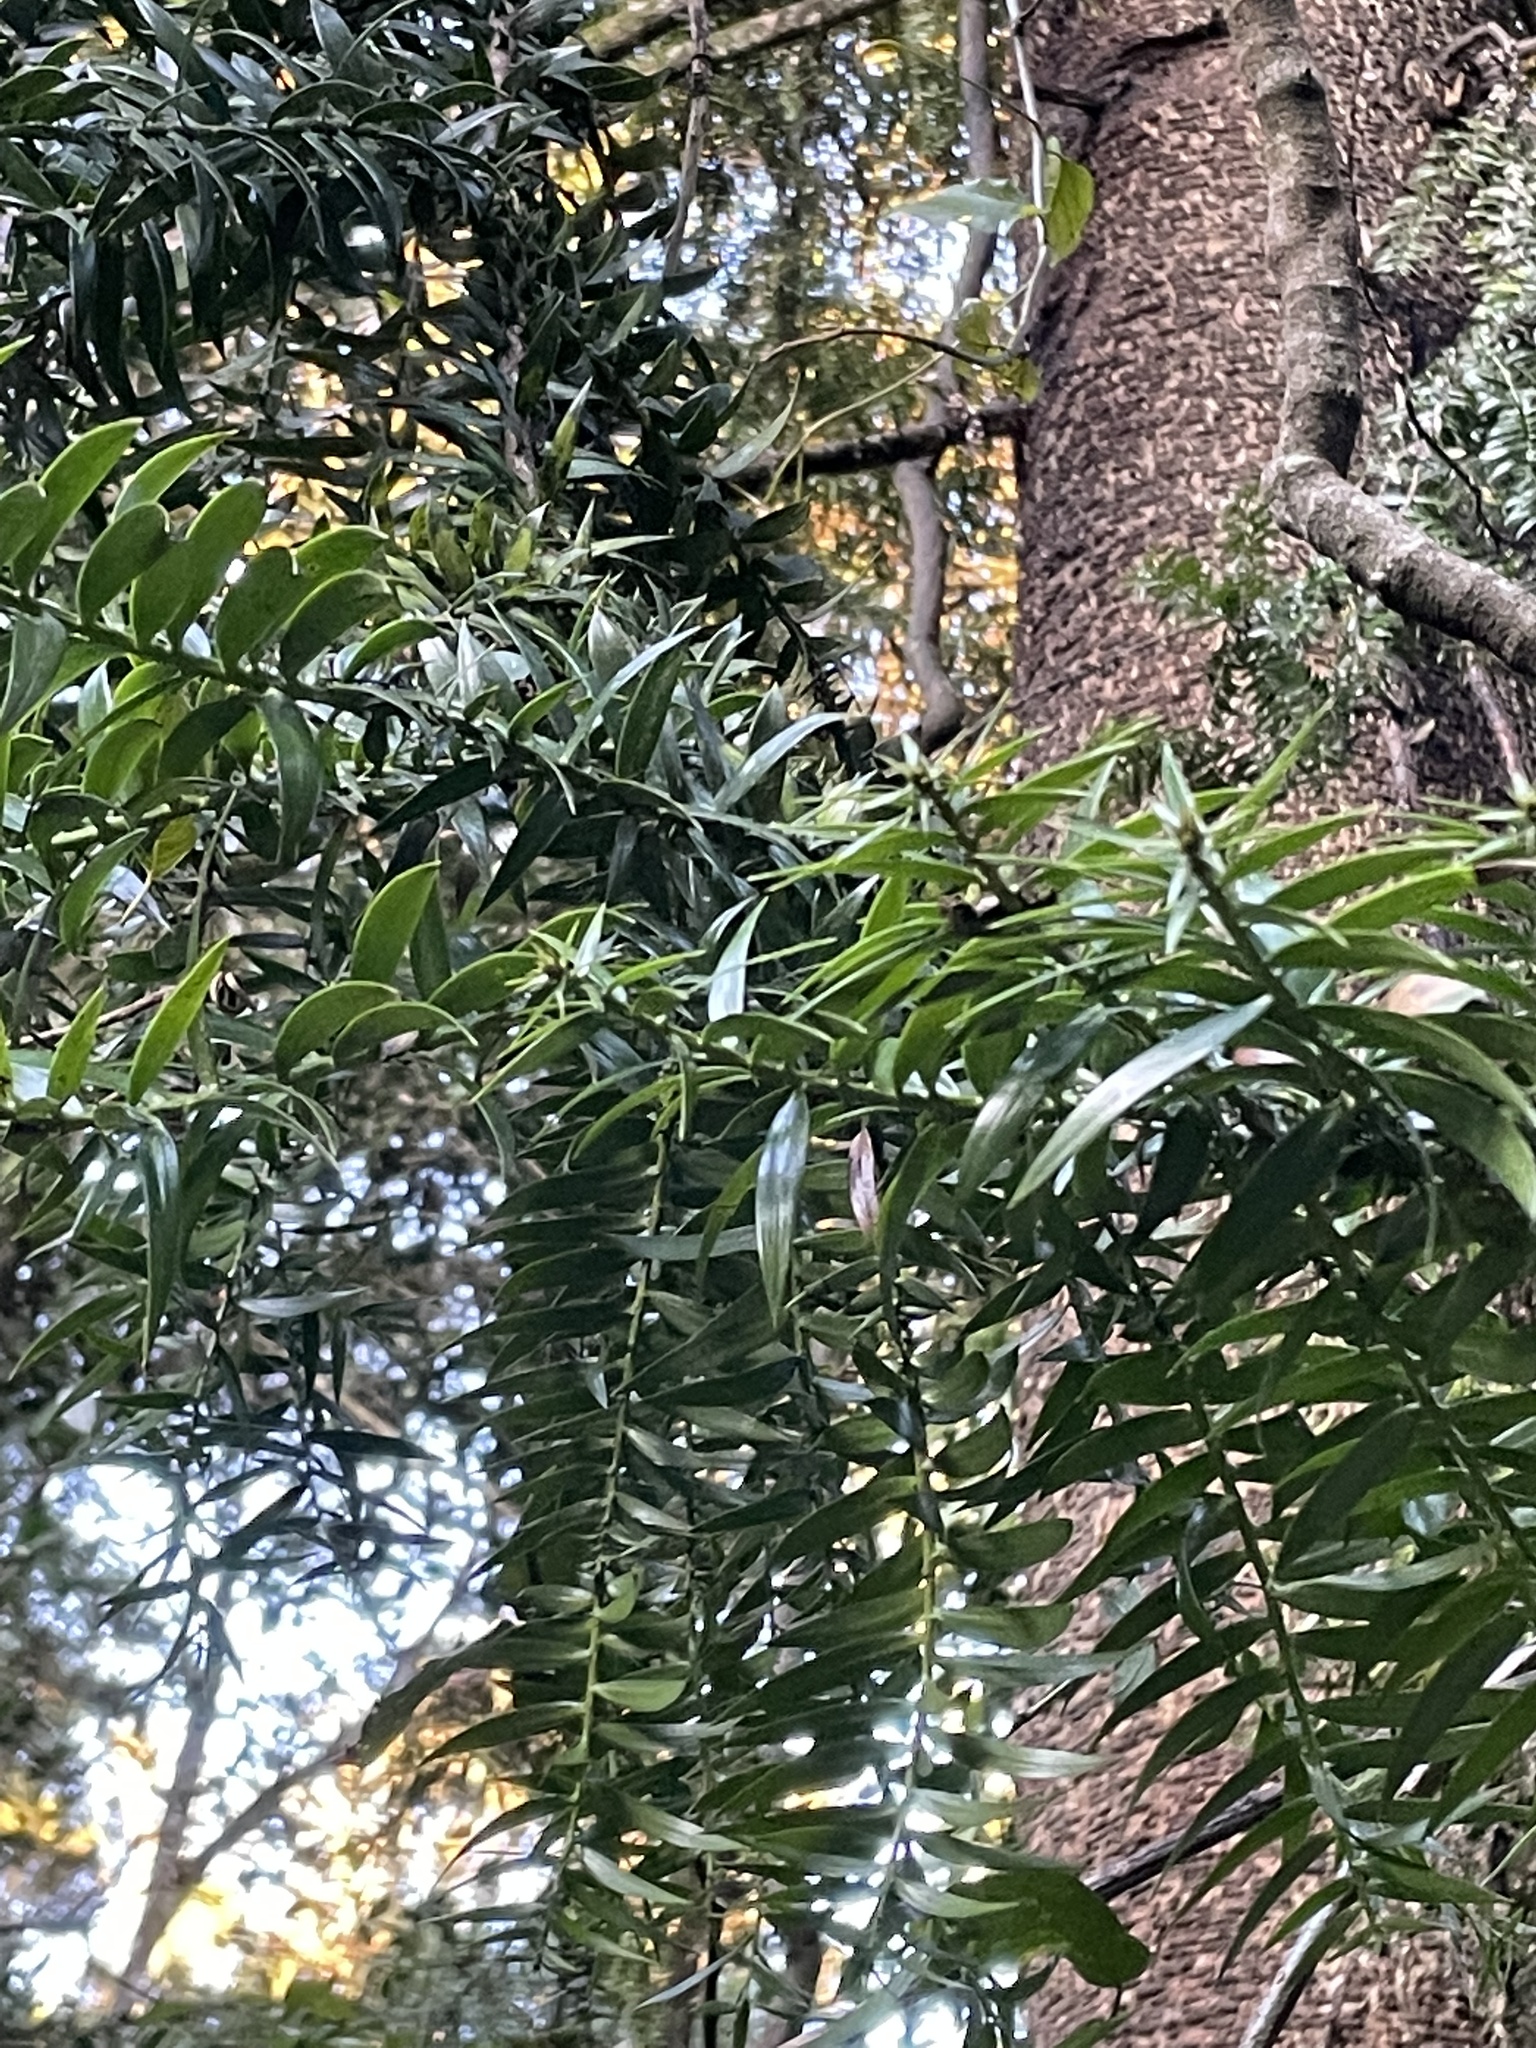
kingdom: Plantae
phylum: Tracheophyta
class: Pinopsida
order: Pinales
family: Araucariaceae
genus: Araucaria
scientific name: Araucaria bidwillii
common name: Moreton-bay-pine
